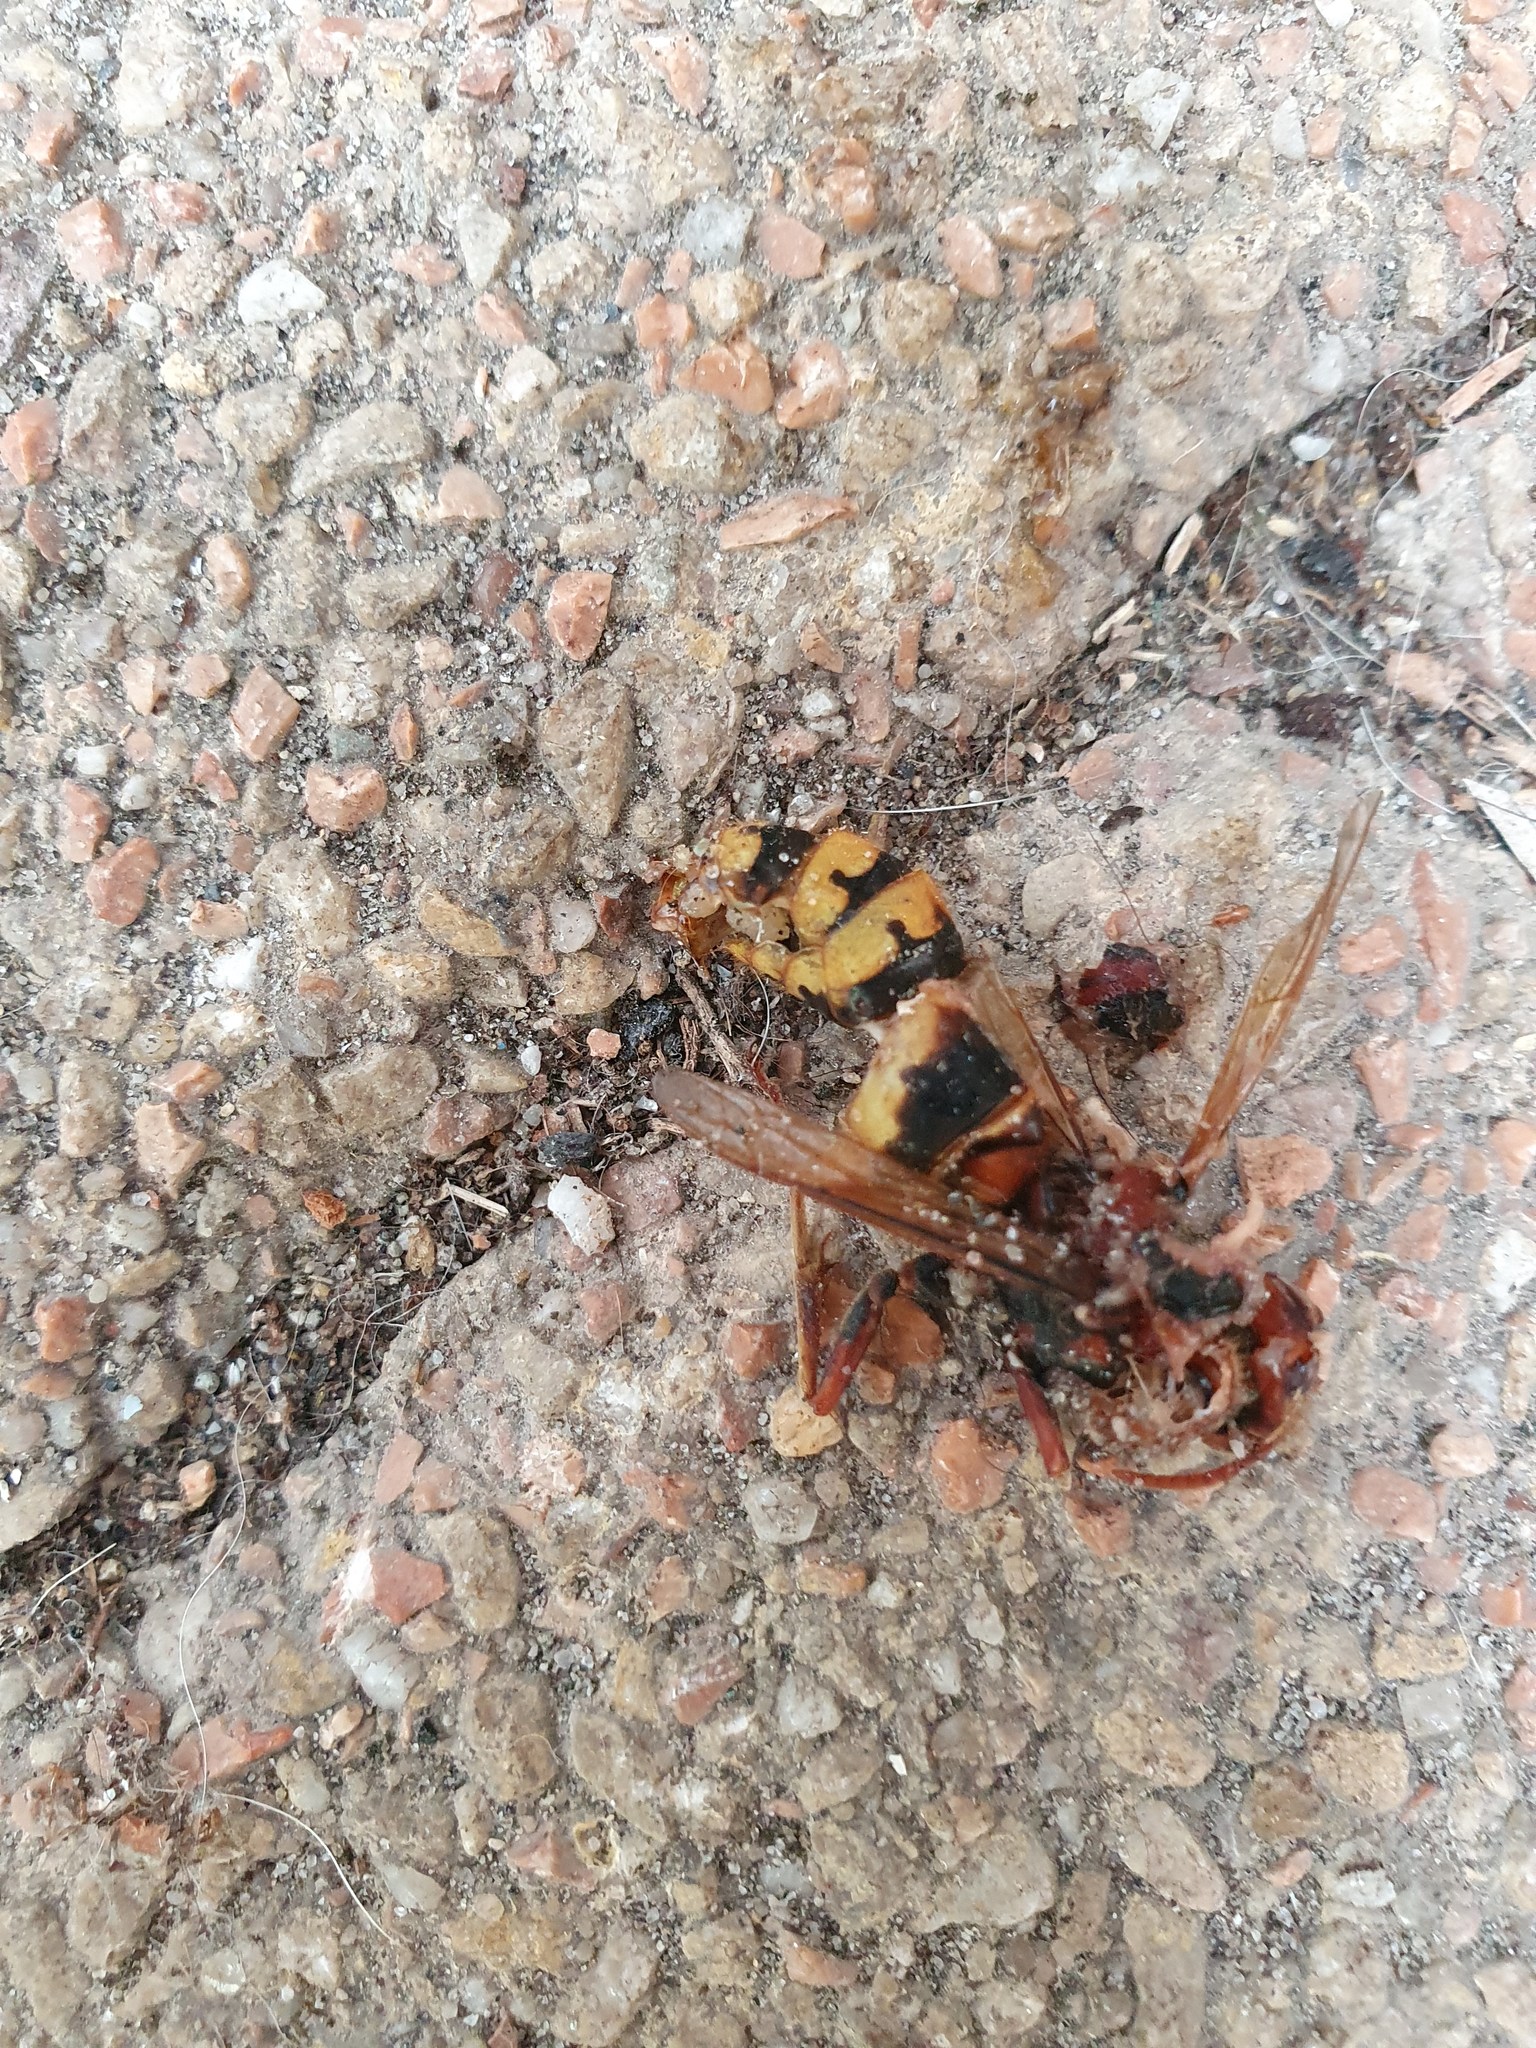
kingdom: Animalia
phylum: Arthropoda
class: Insecta
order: Hymenoptera
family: Vespidae
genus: Vespa
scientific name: Vespa crabro
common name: Hornet
